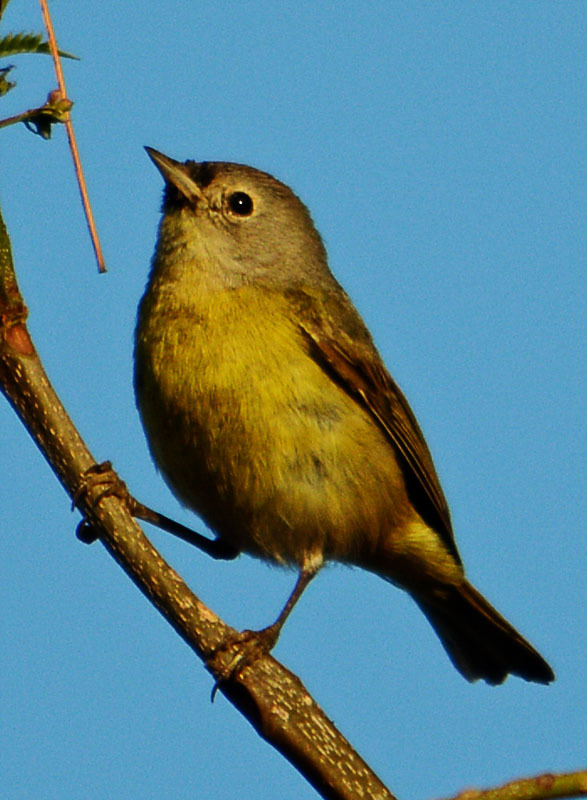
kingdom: Animalia
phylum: Chordata
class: Aves
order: Passeriformes
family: Parulidae
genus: Leiothlypis
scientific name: Leiothlypis ruficapilla
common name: Nashville warbler
